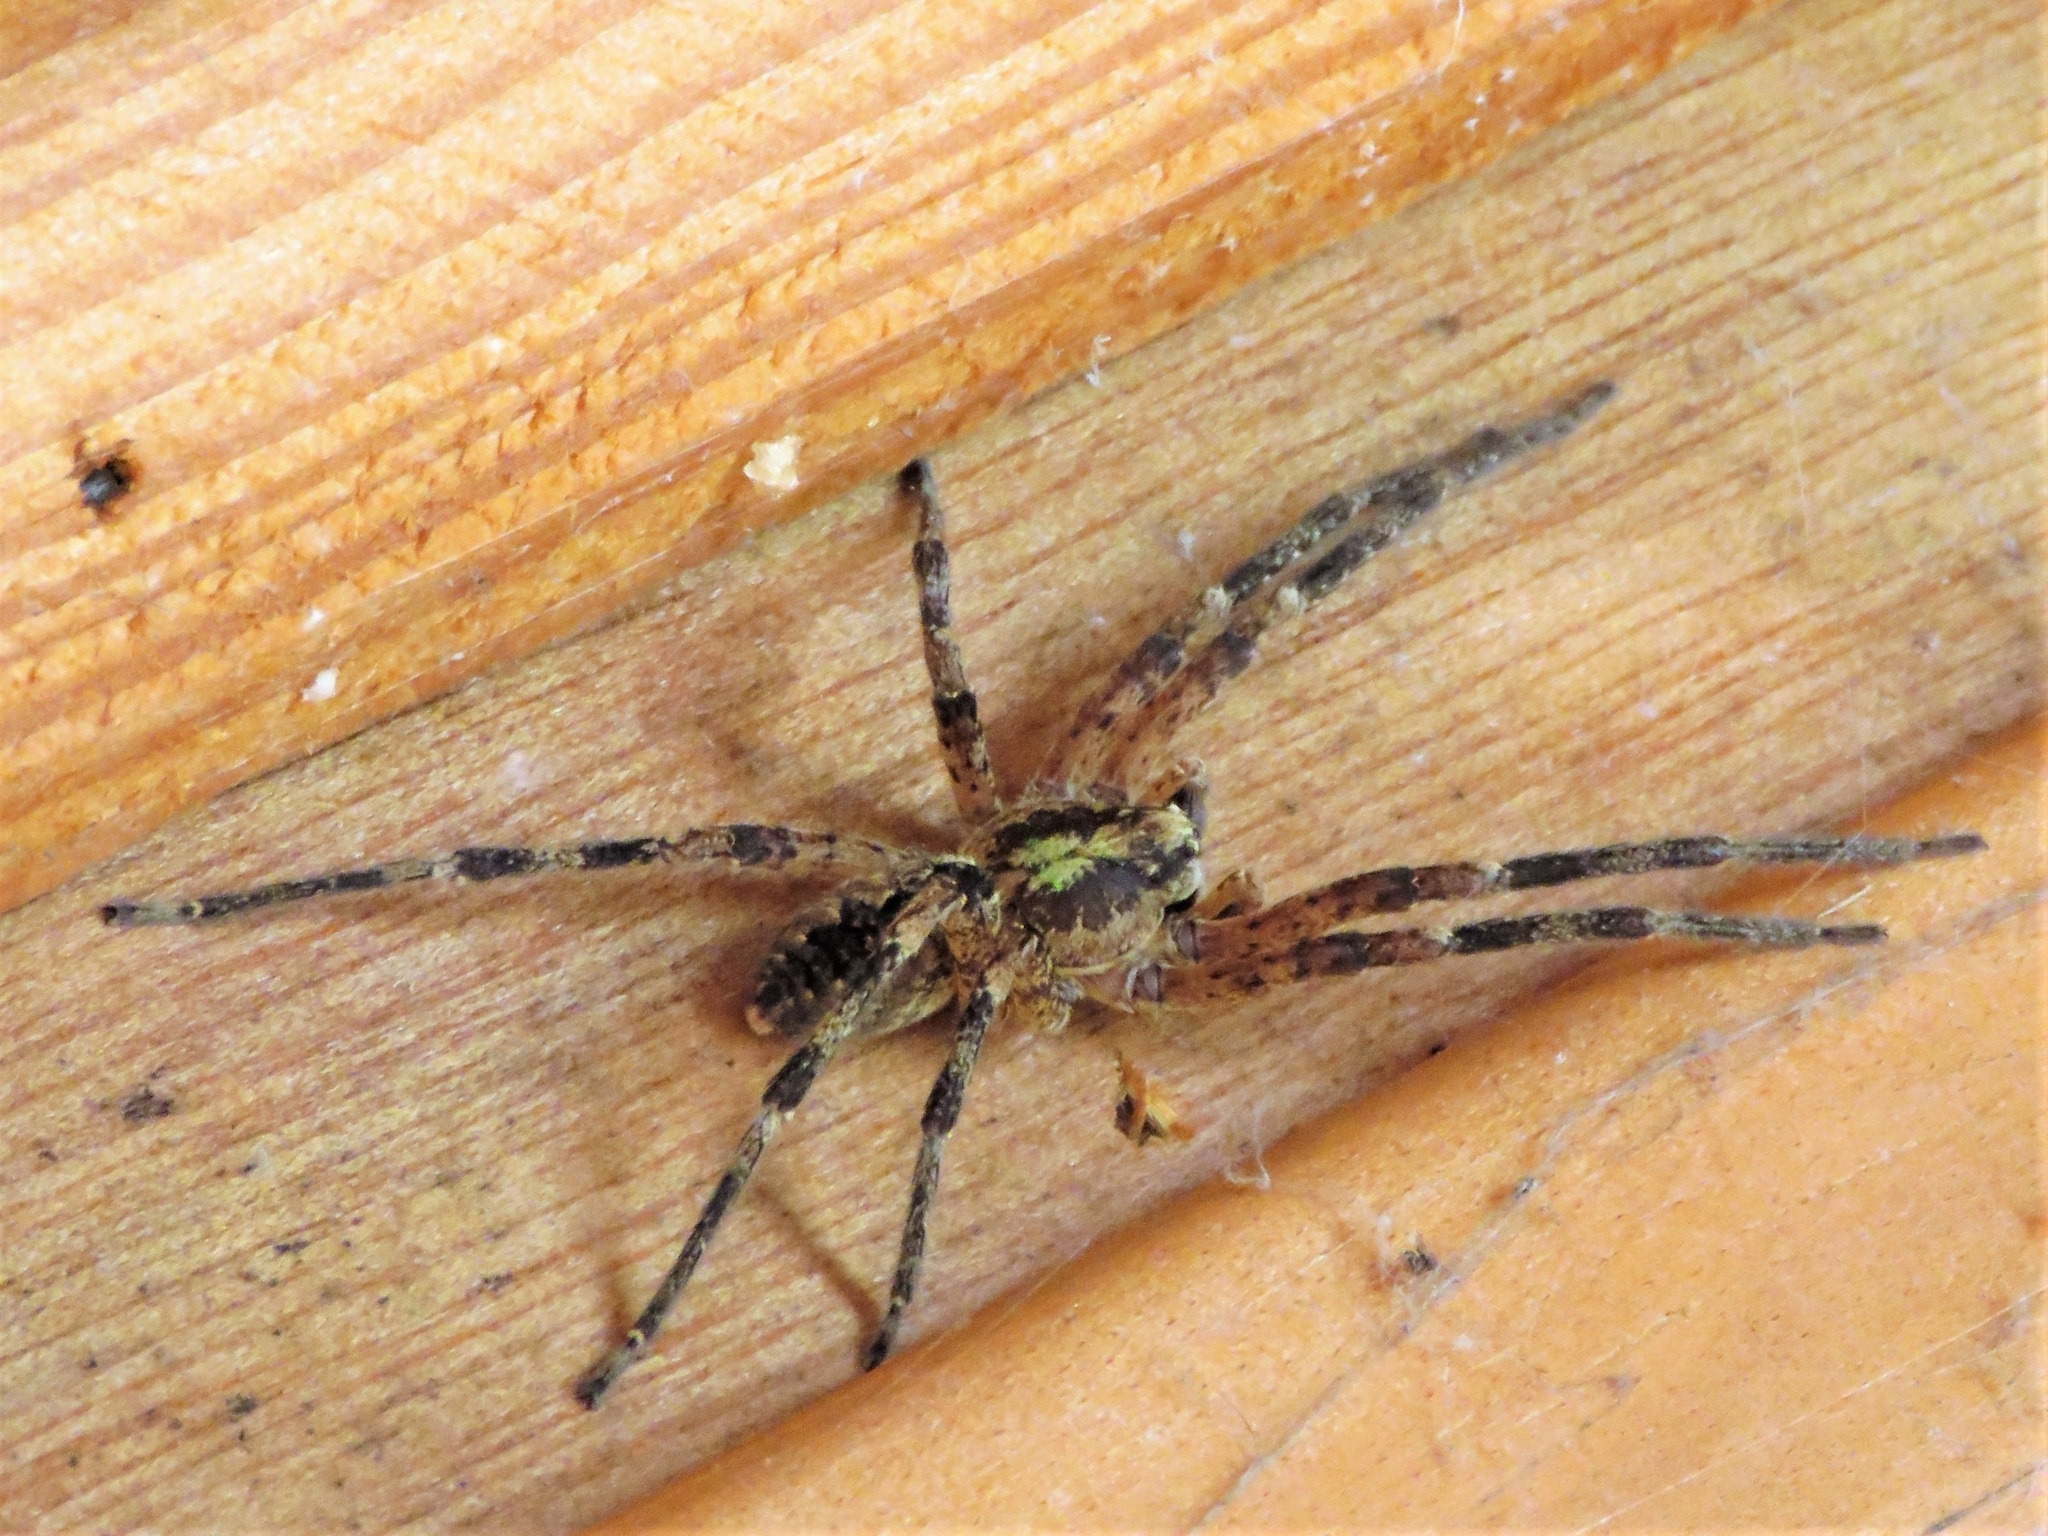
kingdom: Animalia
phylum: Arthropoda
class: Arachnida
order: Araneae
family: Zoropsidae
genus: Zoropsis
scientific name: Zoropsis spinimana
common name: Zoropsid spider
